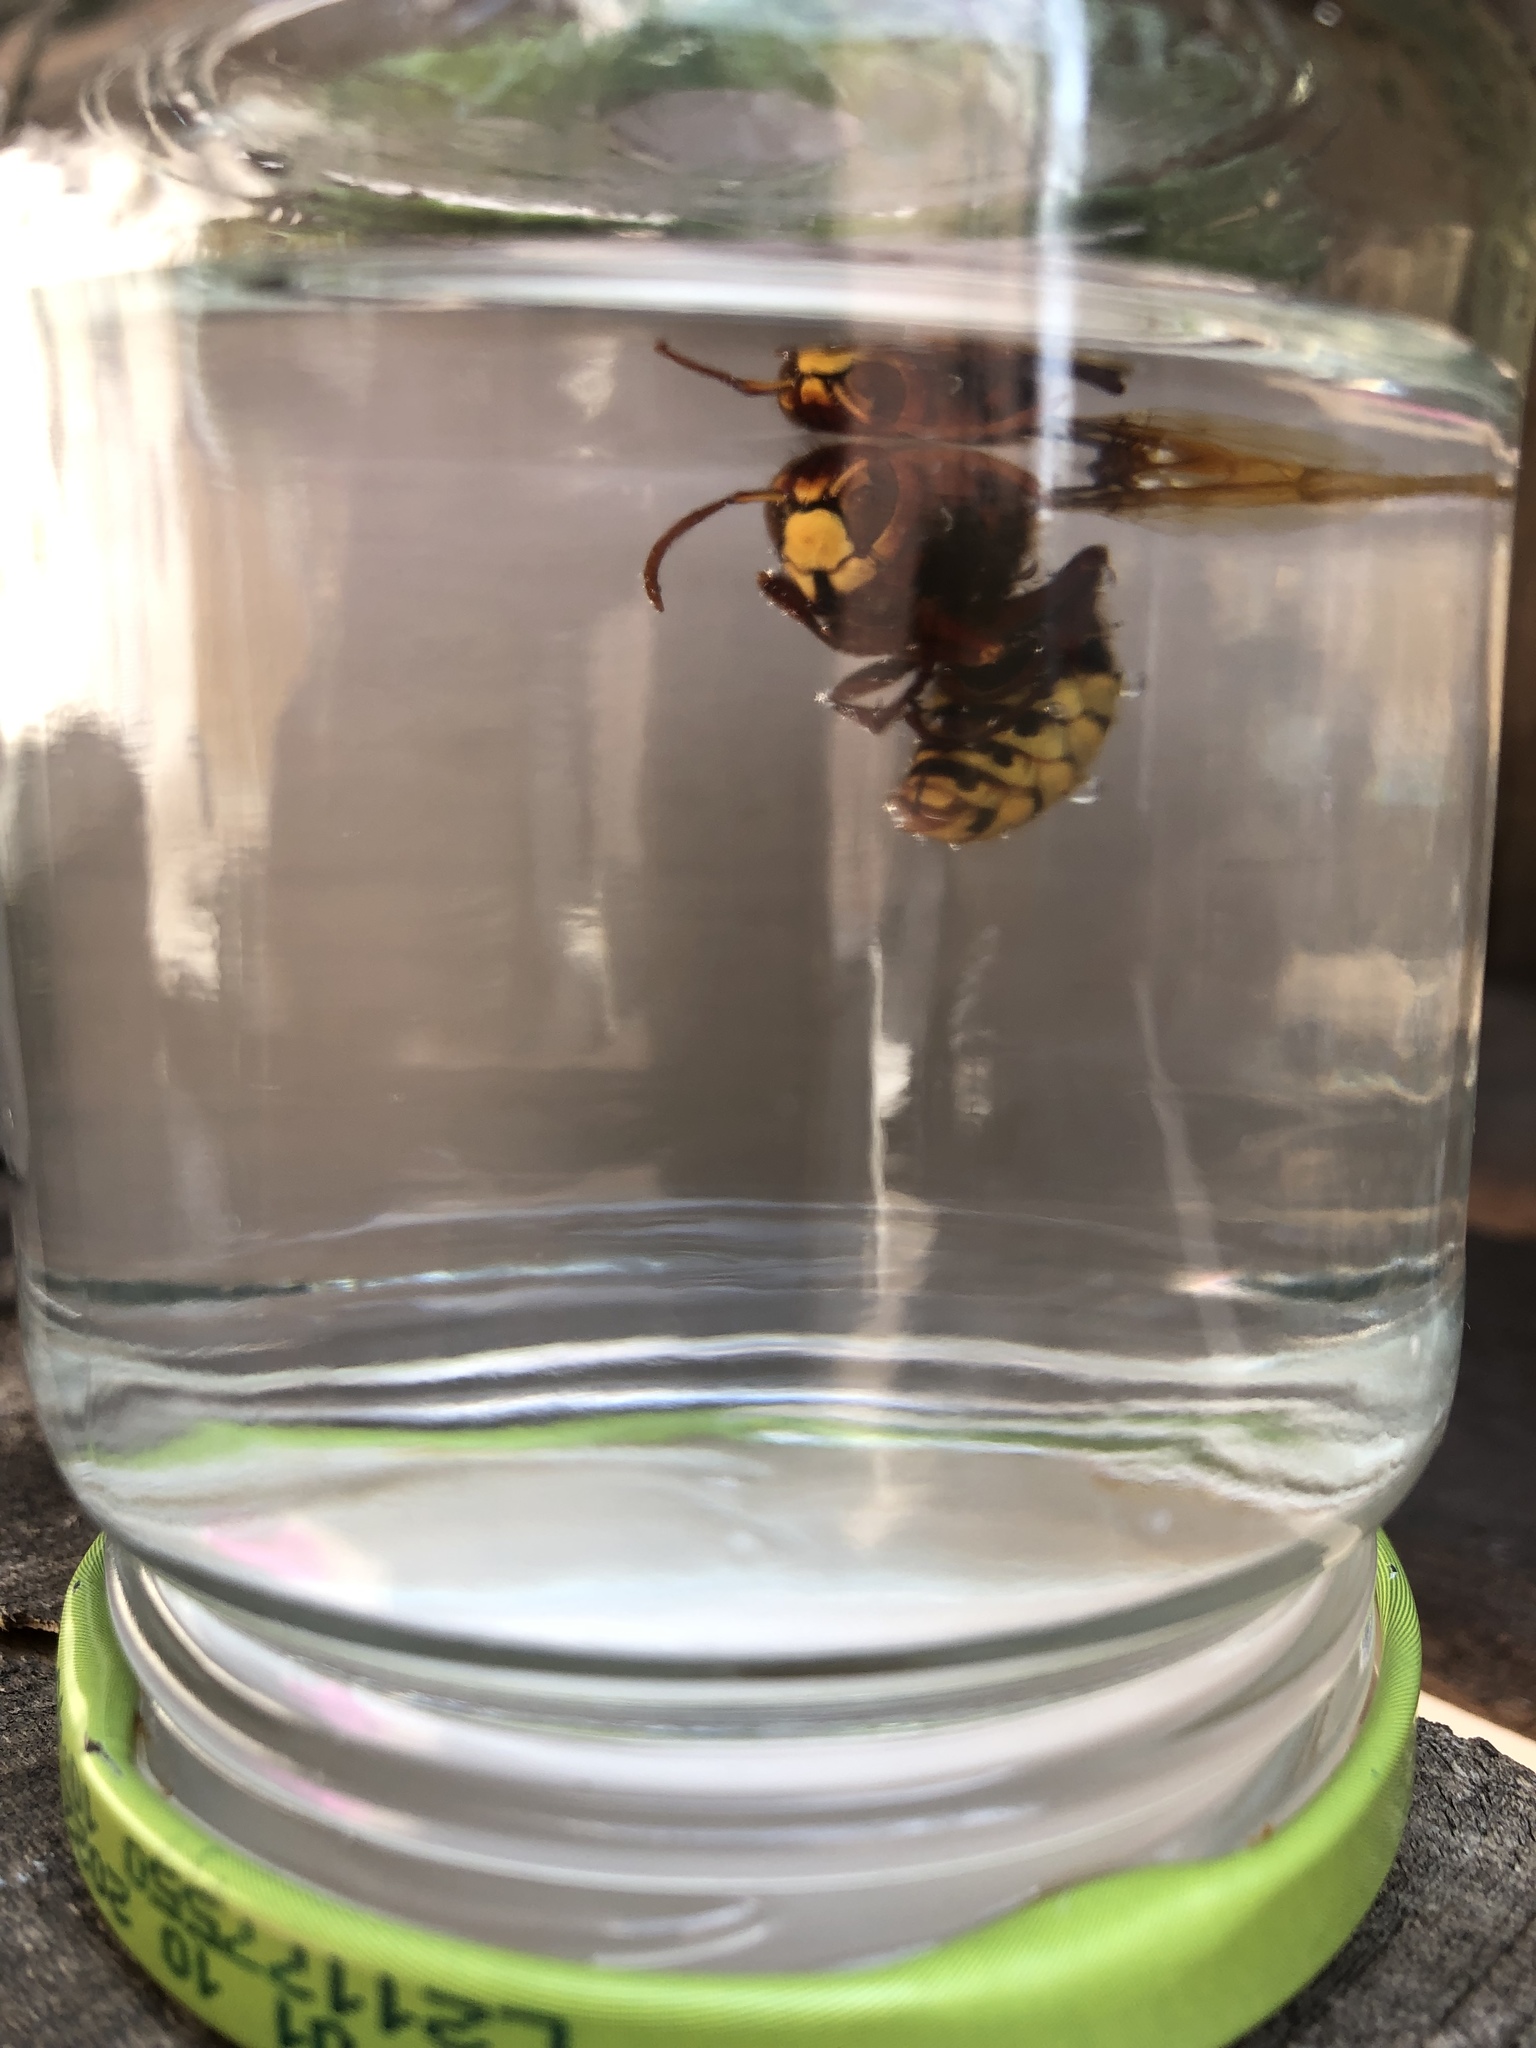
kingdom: Animalia
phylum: Arthropoda
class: Insecta
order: Hymenoptera
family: Vespidae
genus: Vespa
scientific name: Vespa crabro
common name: Hornet
